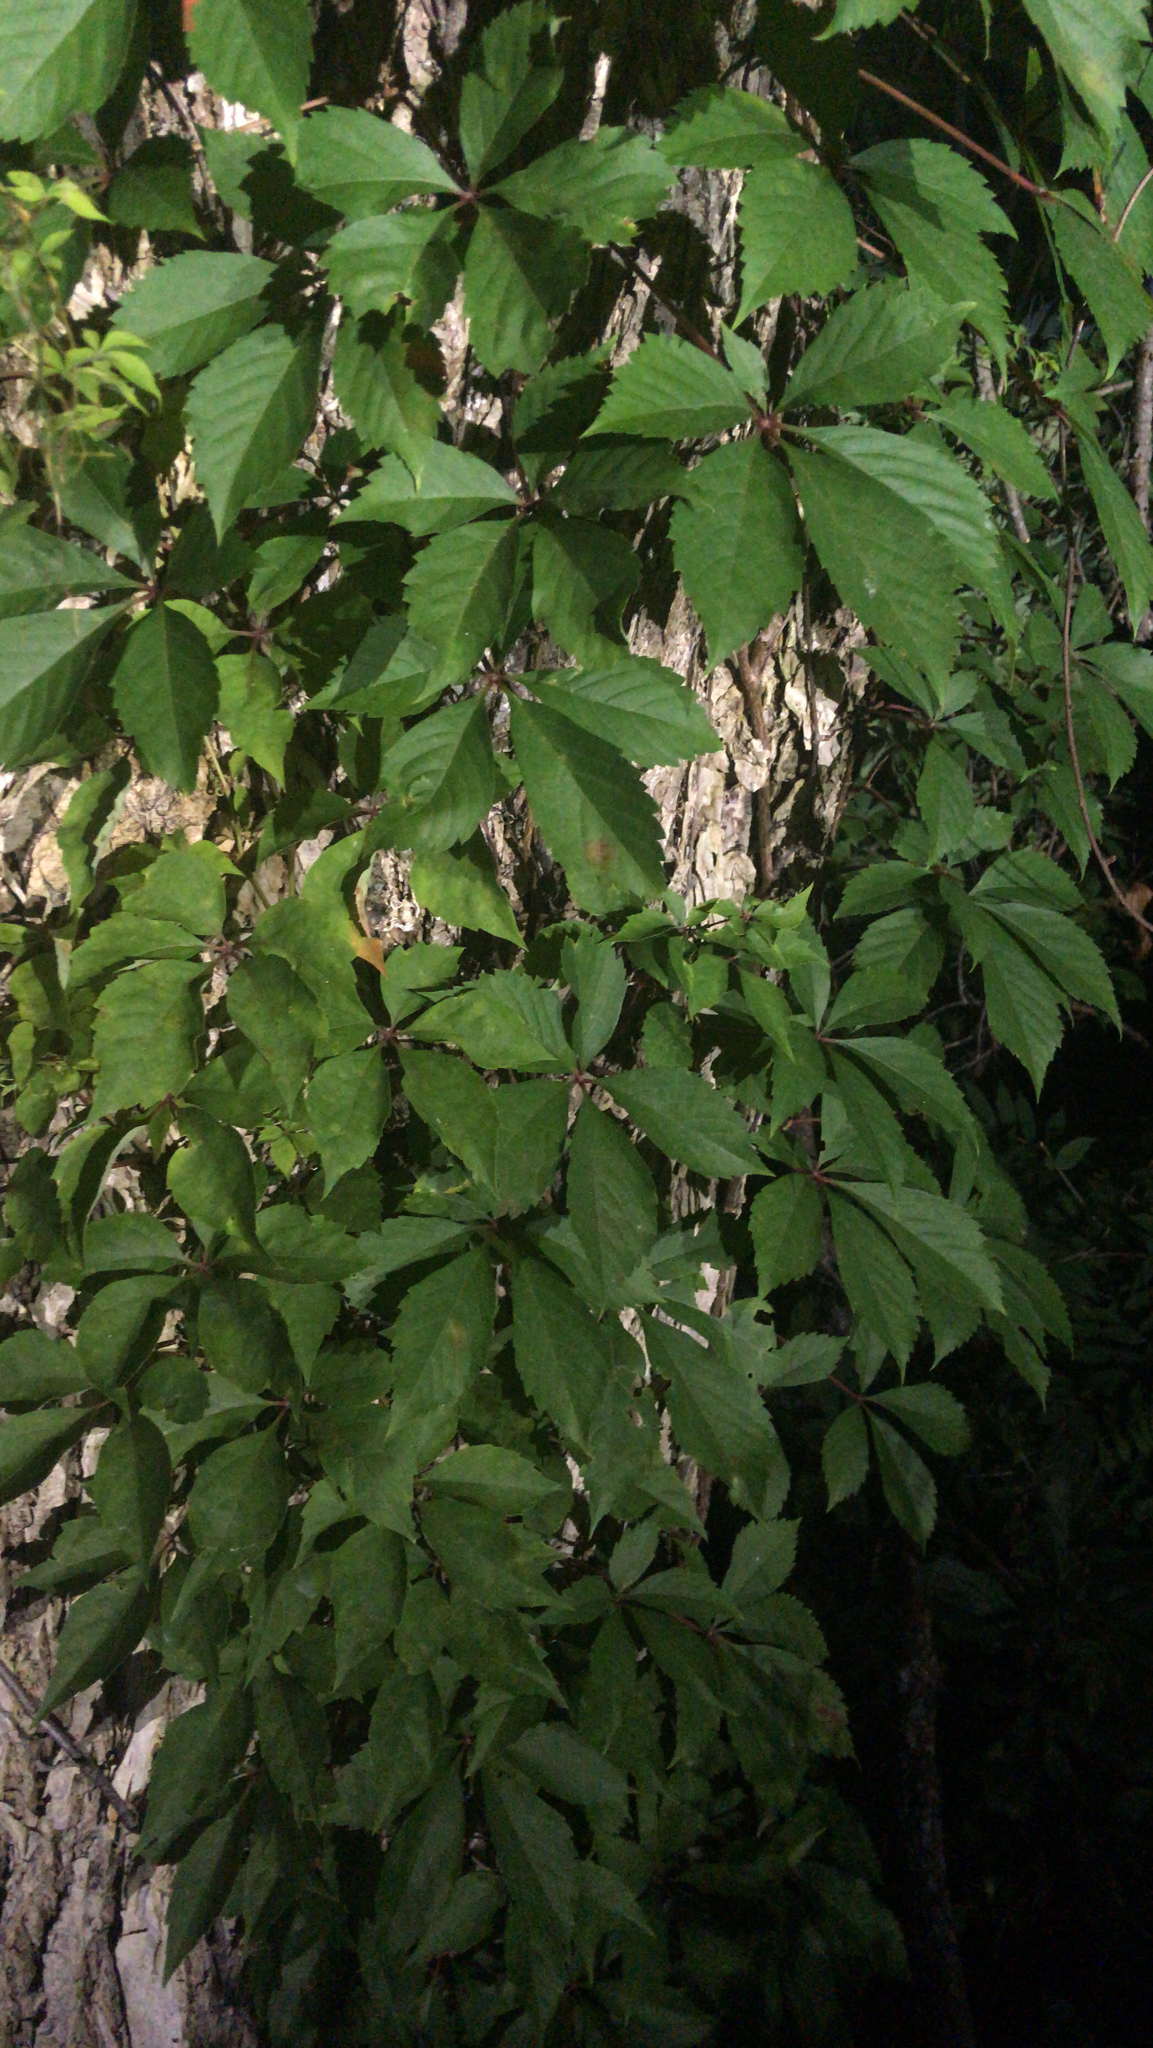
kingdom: Plantae
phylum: Tracheophyta
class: Magnoliopsida
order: Vitales
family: Vitaceae
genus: Parthenocissus
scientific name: Parthenocissus quinquefolia
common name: Virginia-creeper
